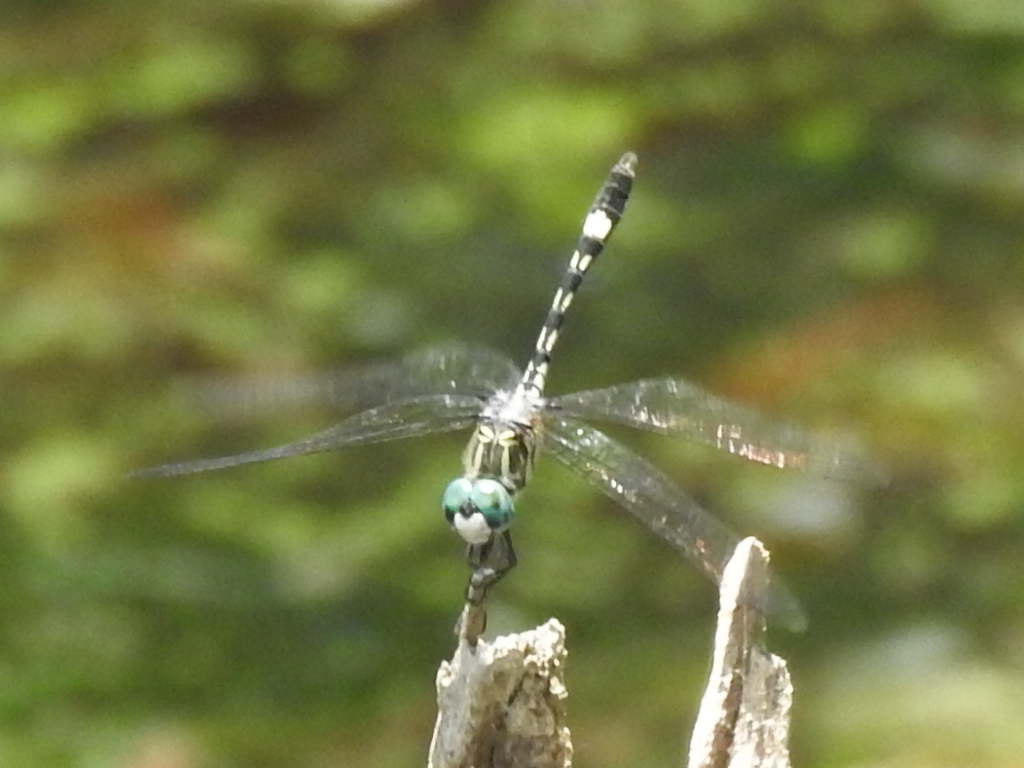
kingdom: Animalia
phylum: Arthropoda
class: Insecta
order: Odonata
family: Libellulidae
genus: Micrathyria
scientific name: Micrathyria hagenii
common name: Thornbush dasher
